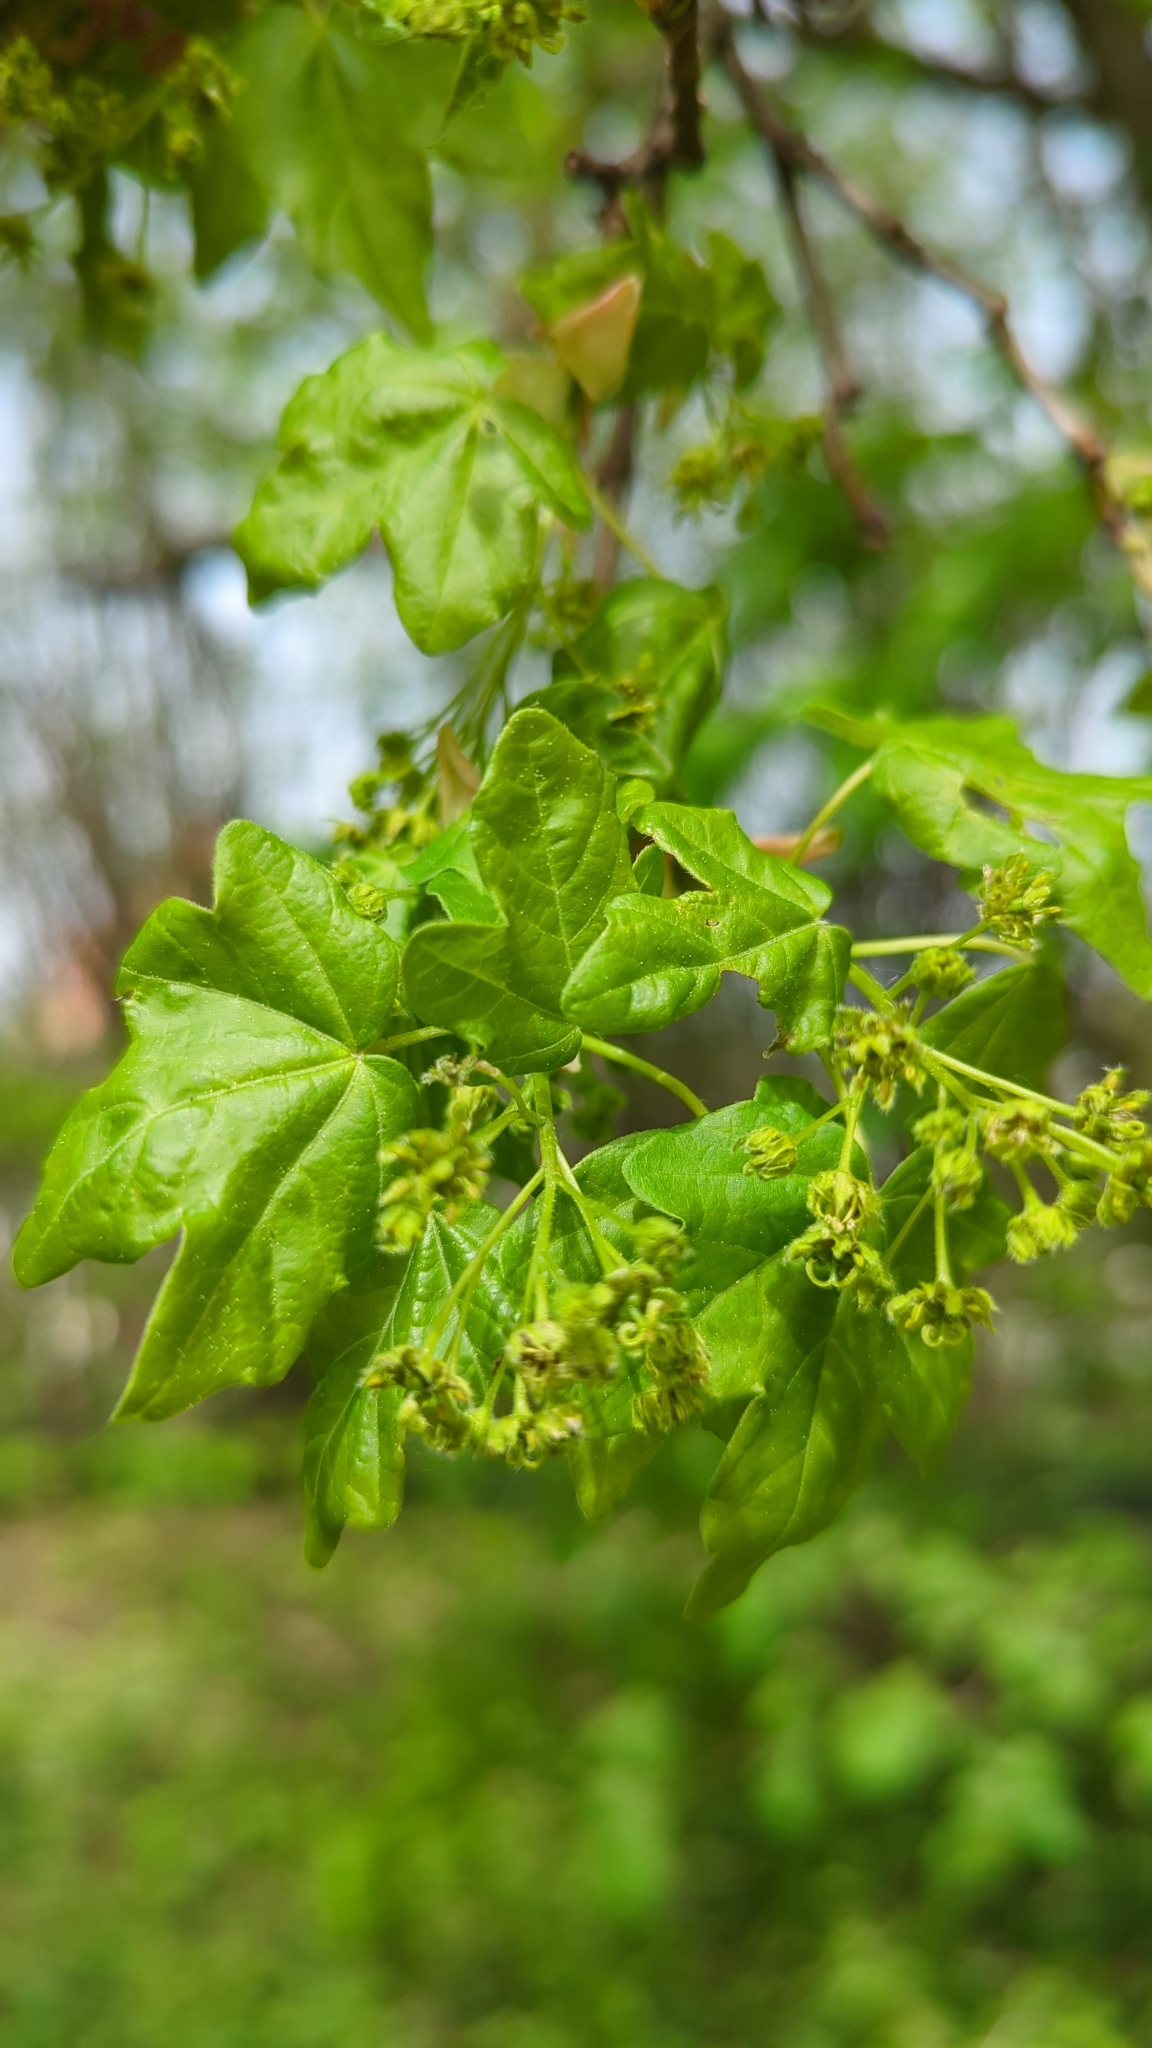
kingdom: Plantae
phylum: Tracheophyta
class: Magnoliopsida
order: Sapindales
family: Sapindaceae
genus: Acer
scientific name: Acer campestre
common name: Field maple
